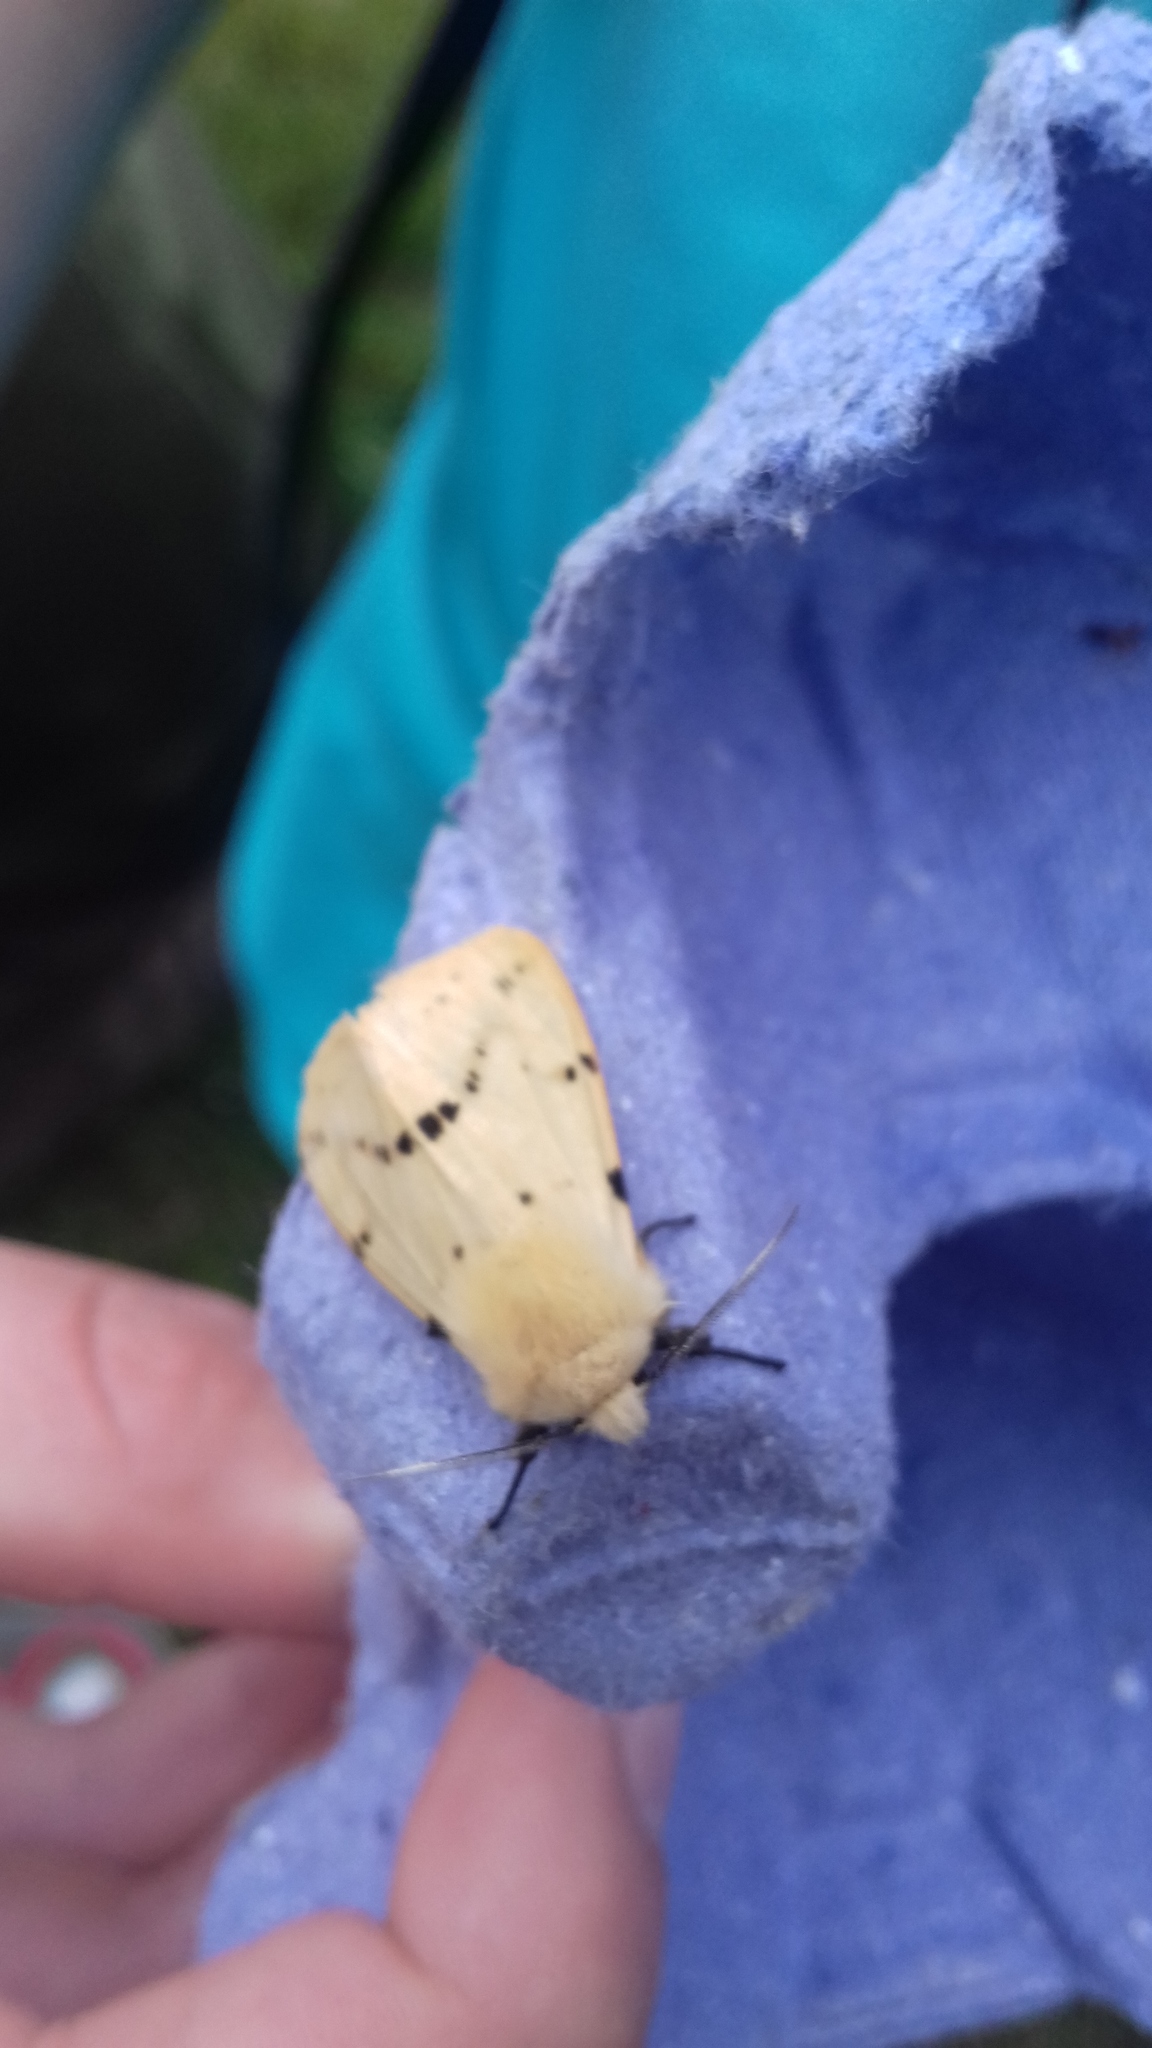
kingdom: Animalia
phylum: Arthropoda
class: Insecta
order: Lepidoptera
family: Erebidae
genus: Spilarctia
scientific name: Spilarctia lutea
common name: Buff ermine
